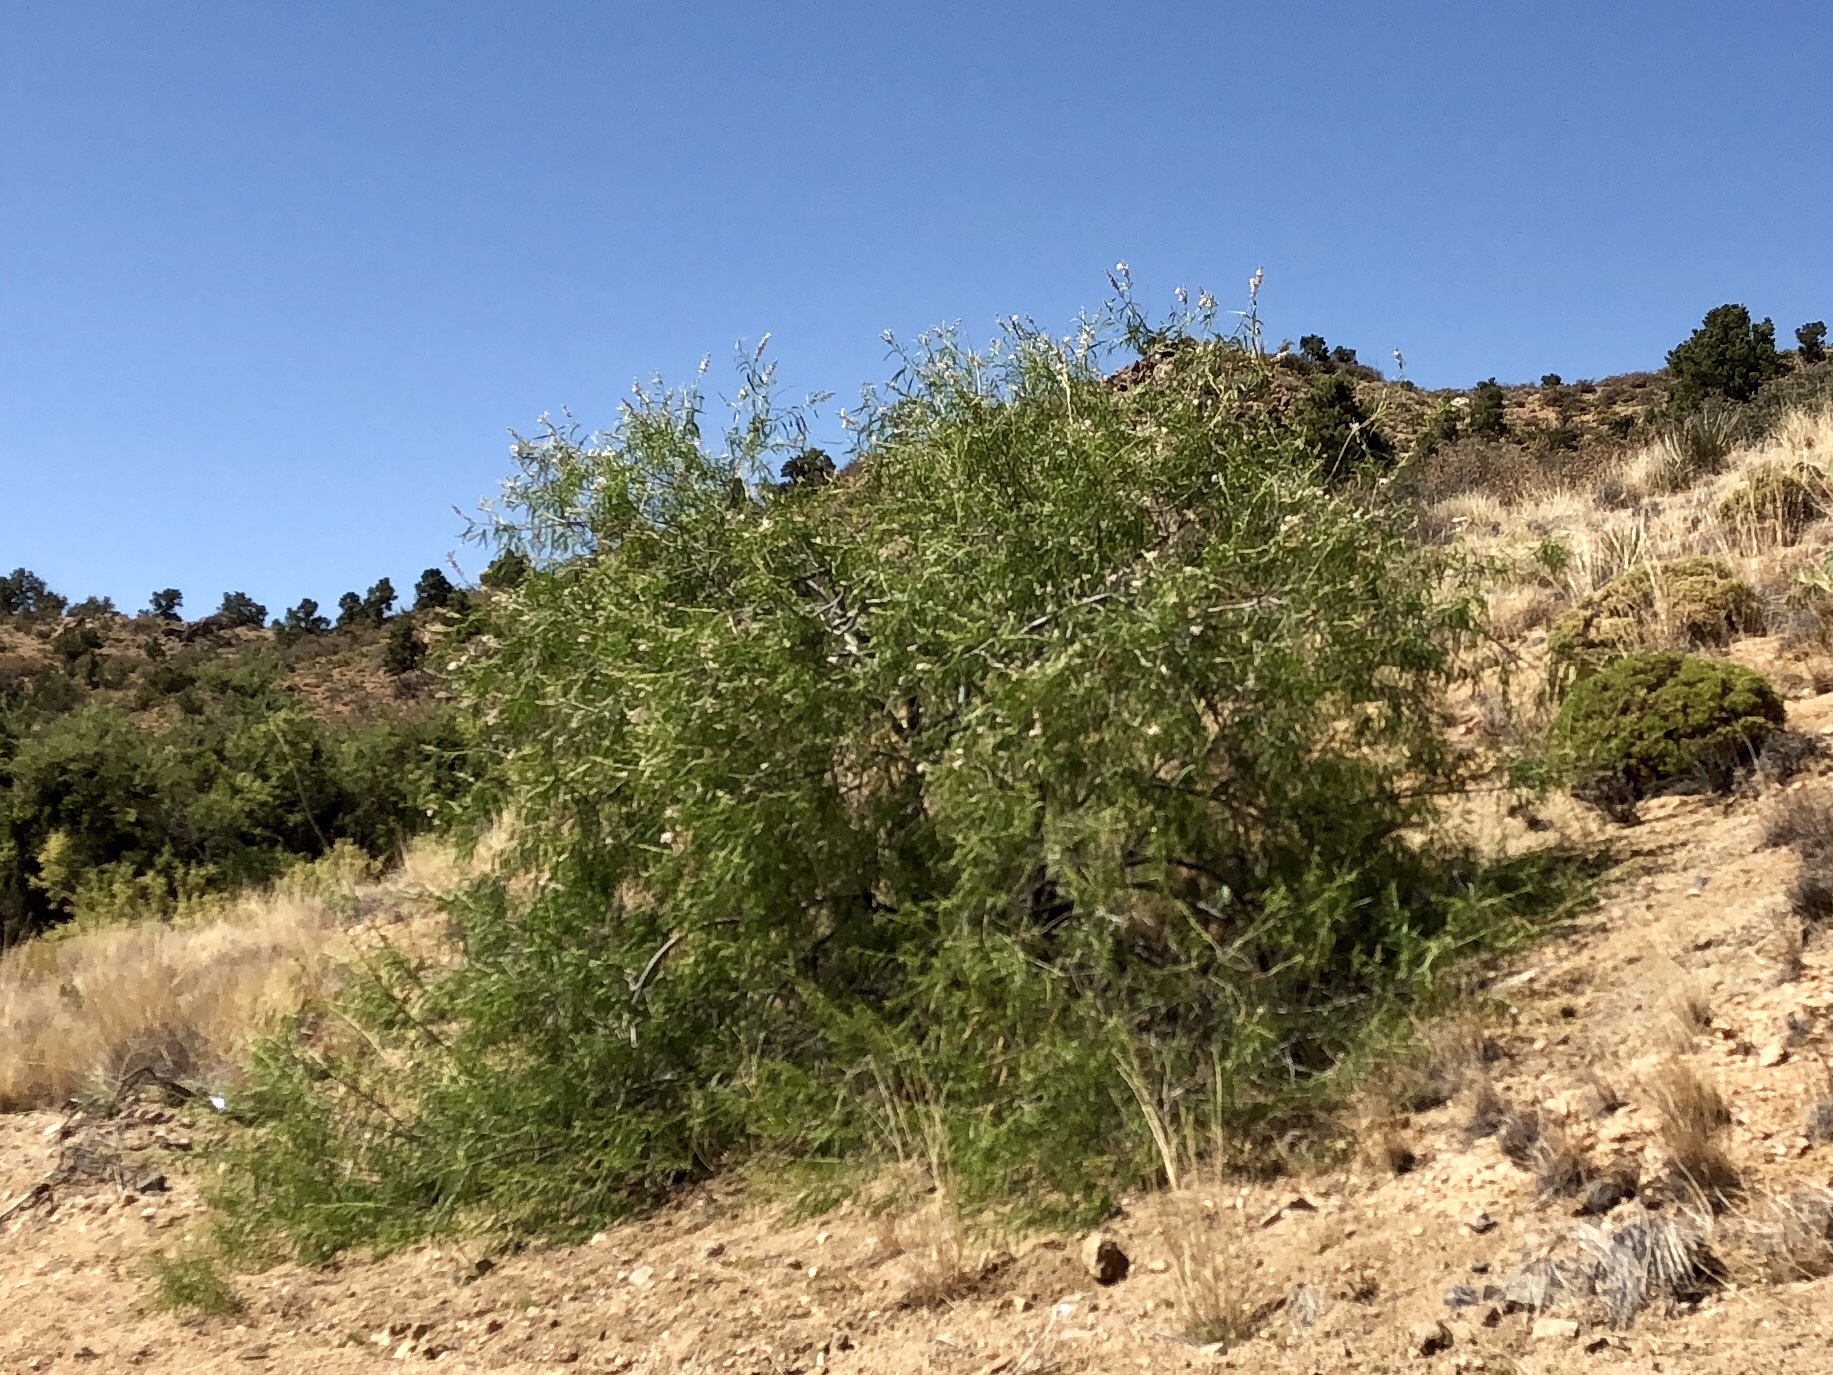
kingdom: Plantae
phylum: Tracheophyta
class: Magnoliopsida
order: Lamiales
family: Bignoniaceae
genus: Chilopsis
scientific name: Chilopsis linearis
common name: Desert-willow
